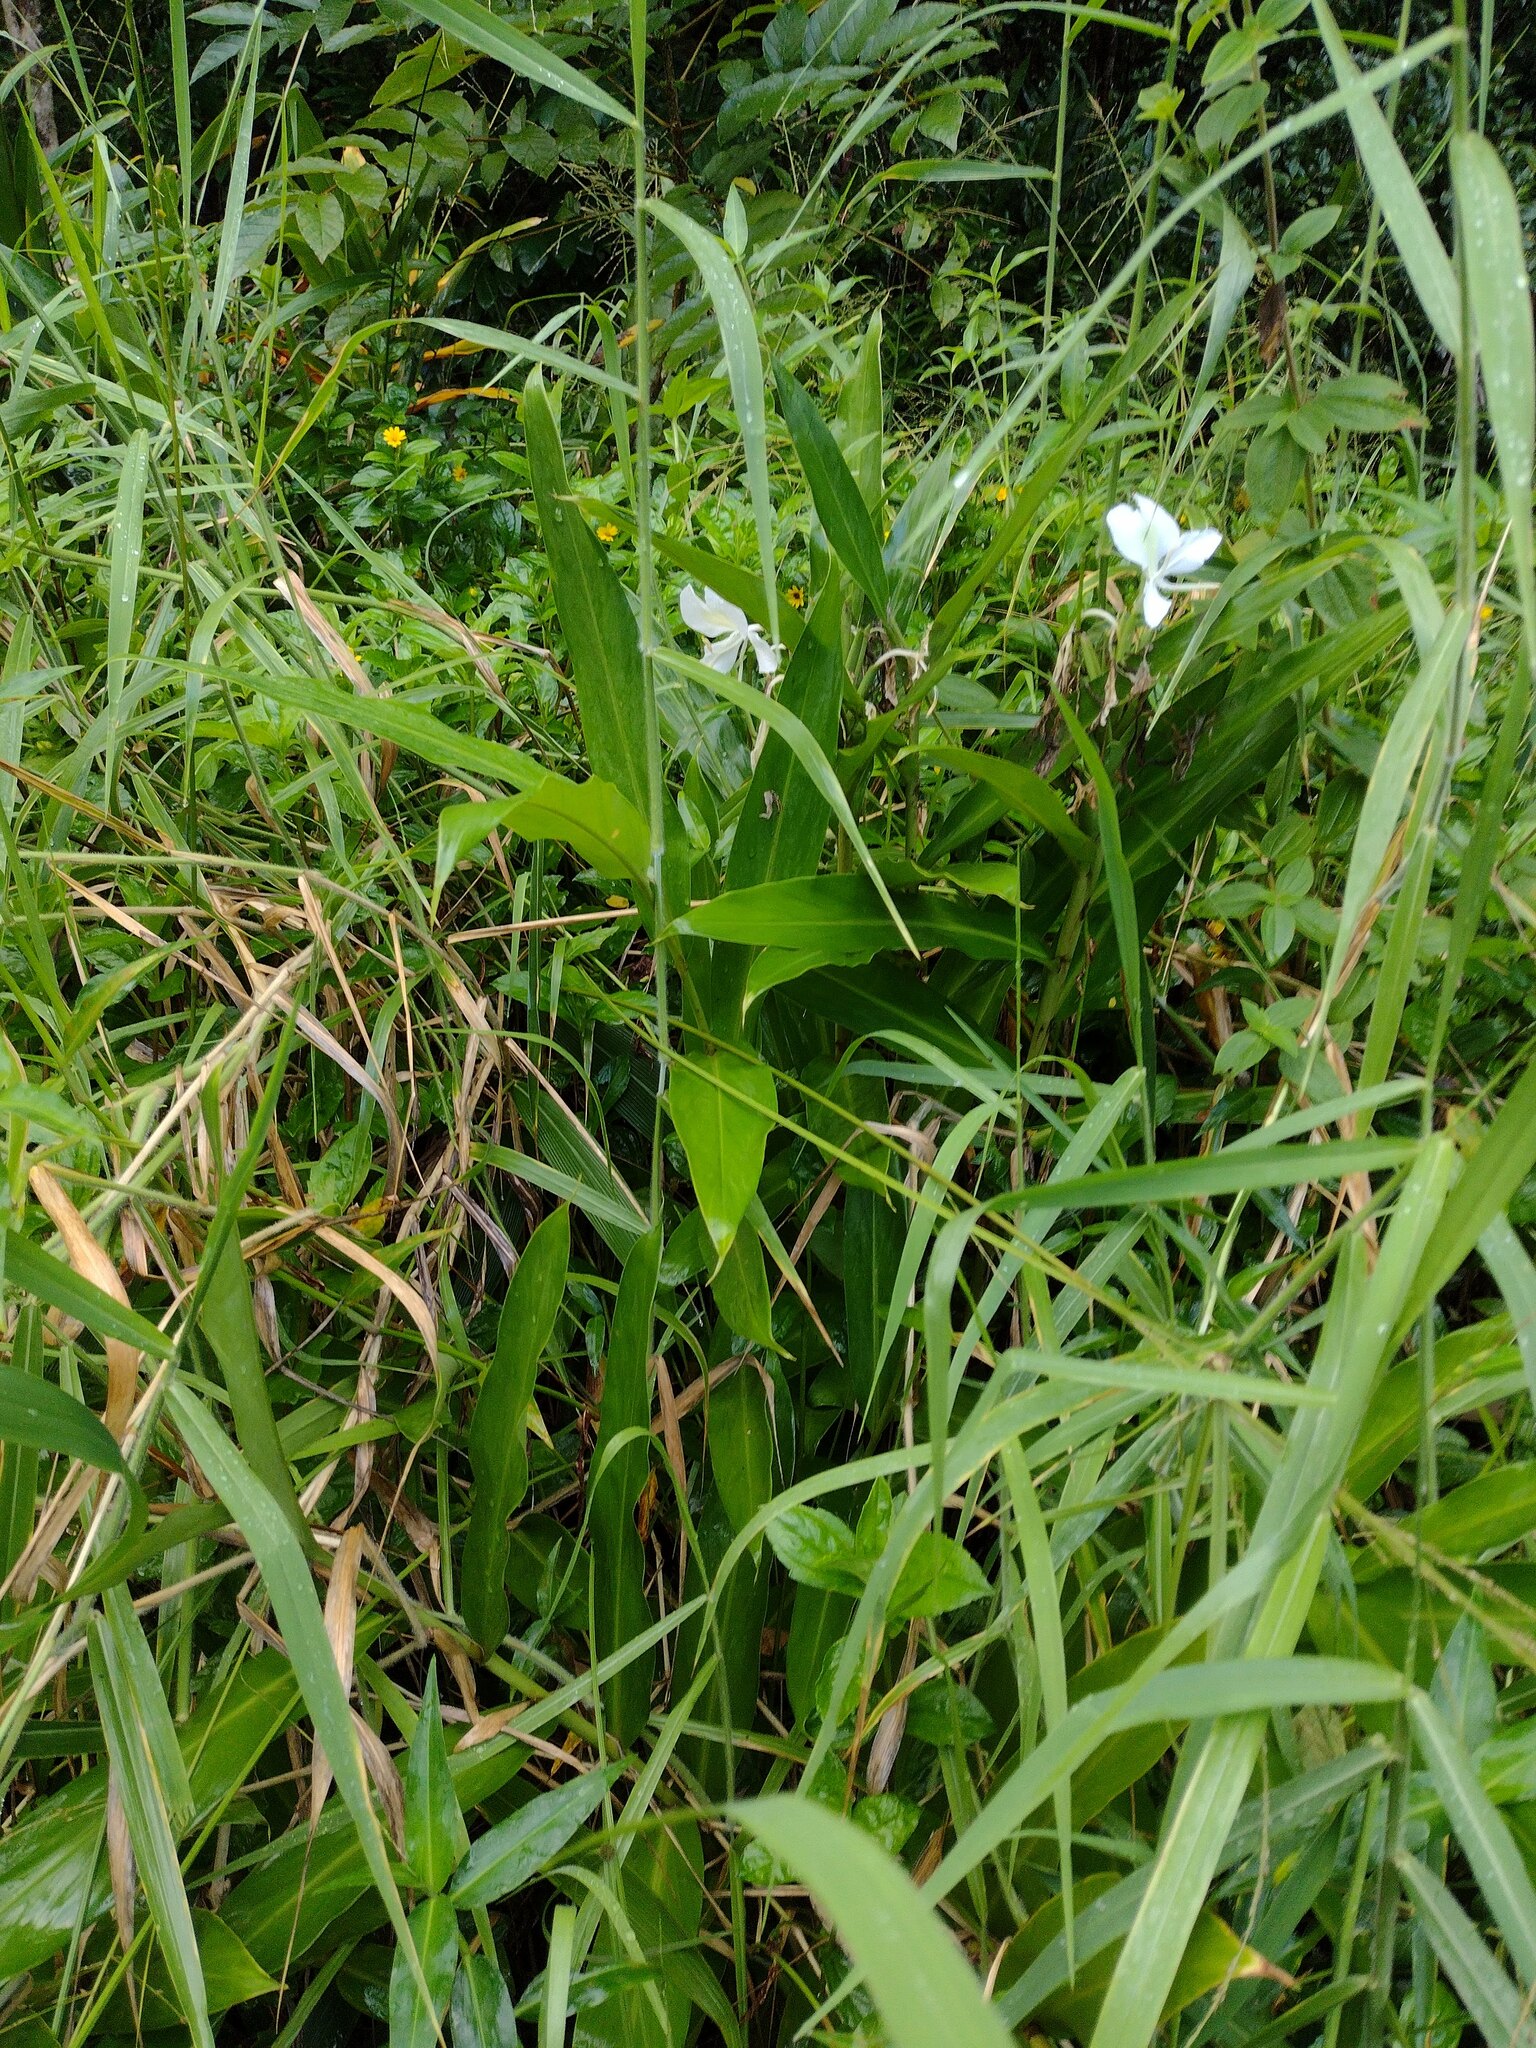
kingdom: Plantae
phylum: Tracheophyta
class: Liliopsida
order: Zingiberales
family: Zingiberaceae
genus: Hedychium
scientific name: Hedychium coronarium
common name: White garland-lily
